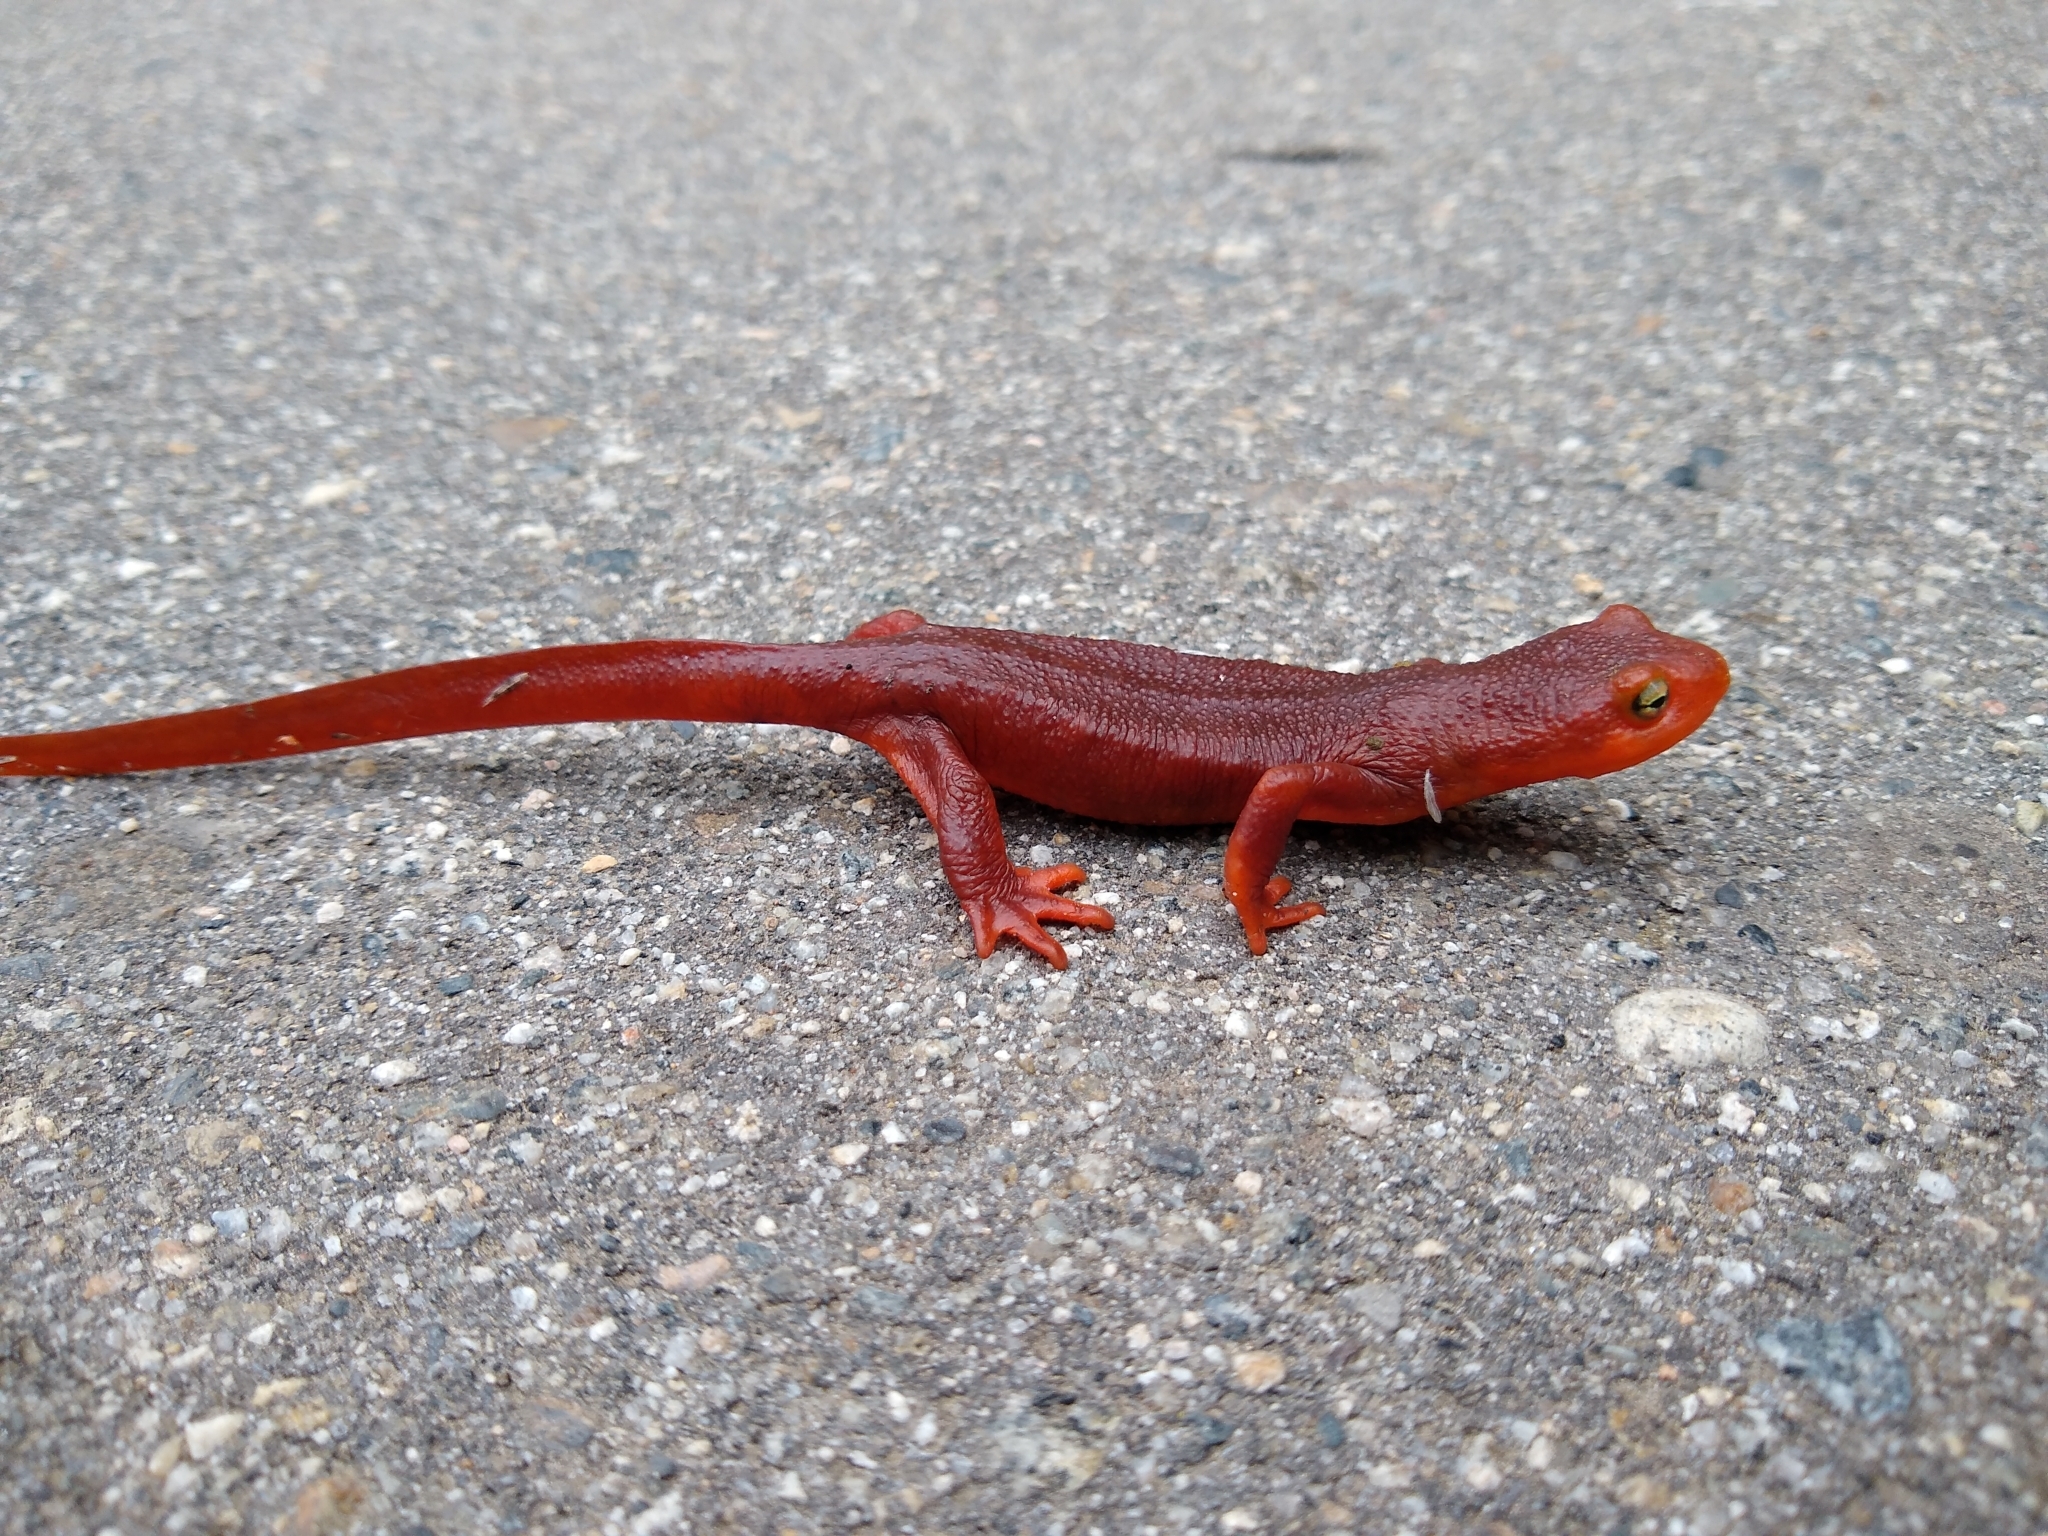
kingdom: Animalia
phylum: Chordata
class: Amphibia
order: Caudata
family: Salamandridae
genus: Taricha
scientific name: Taricha
